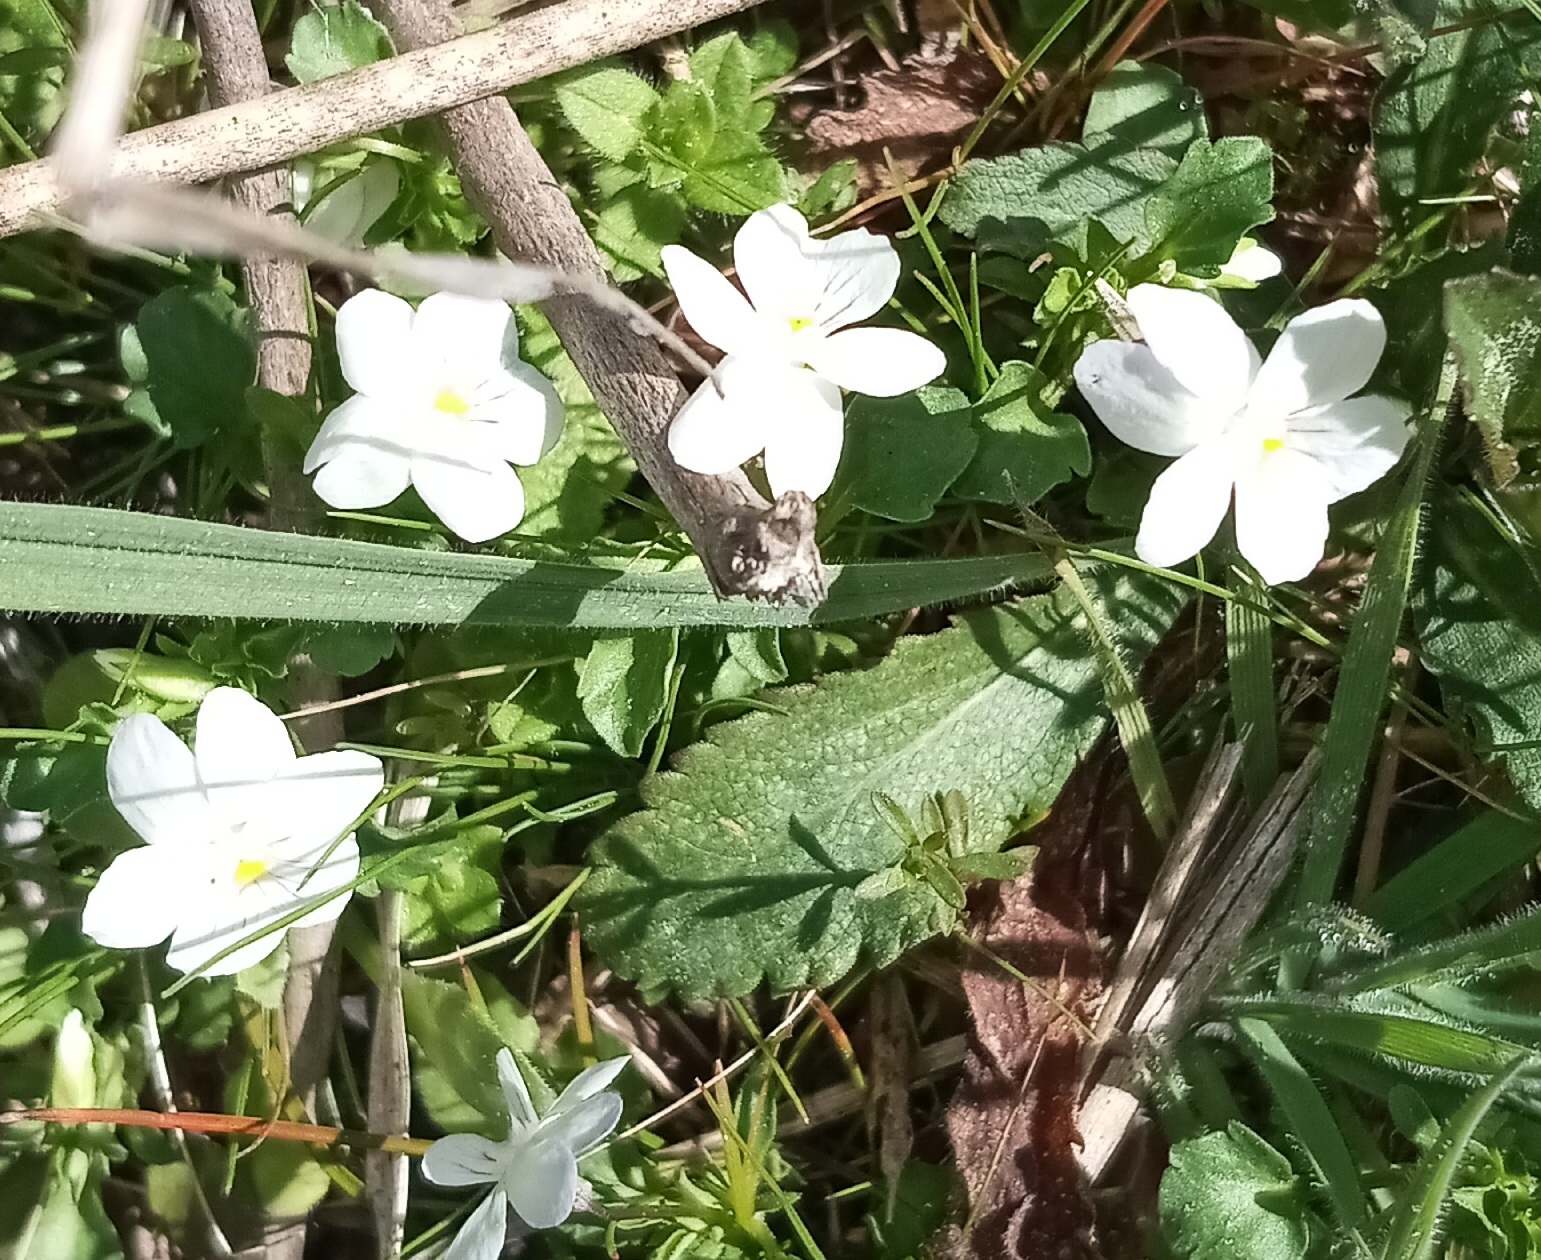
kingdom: Plantae
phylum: Tracheophyta
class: Magnoliopsida
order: Malpighiales
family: Violaceae
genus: Viola
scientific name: Viola rafinesquei
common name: American field pansy
